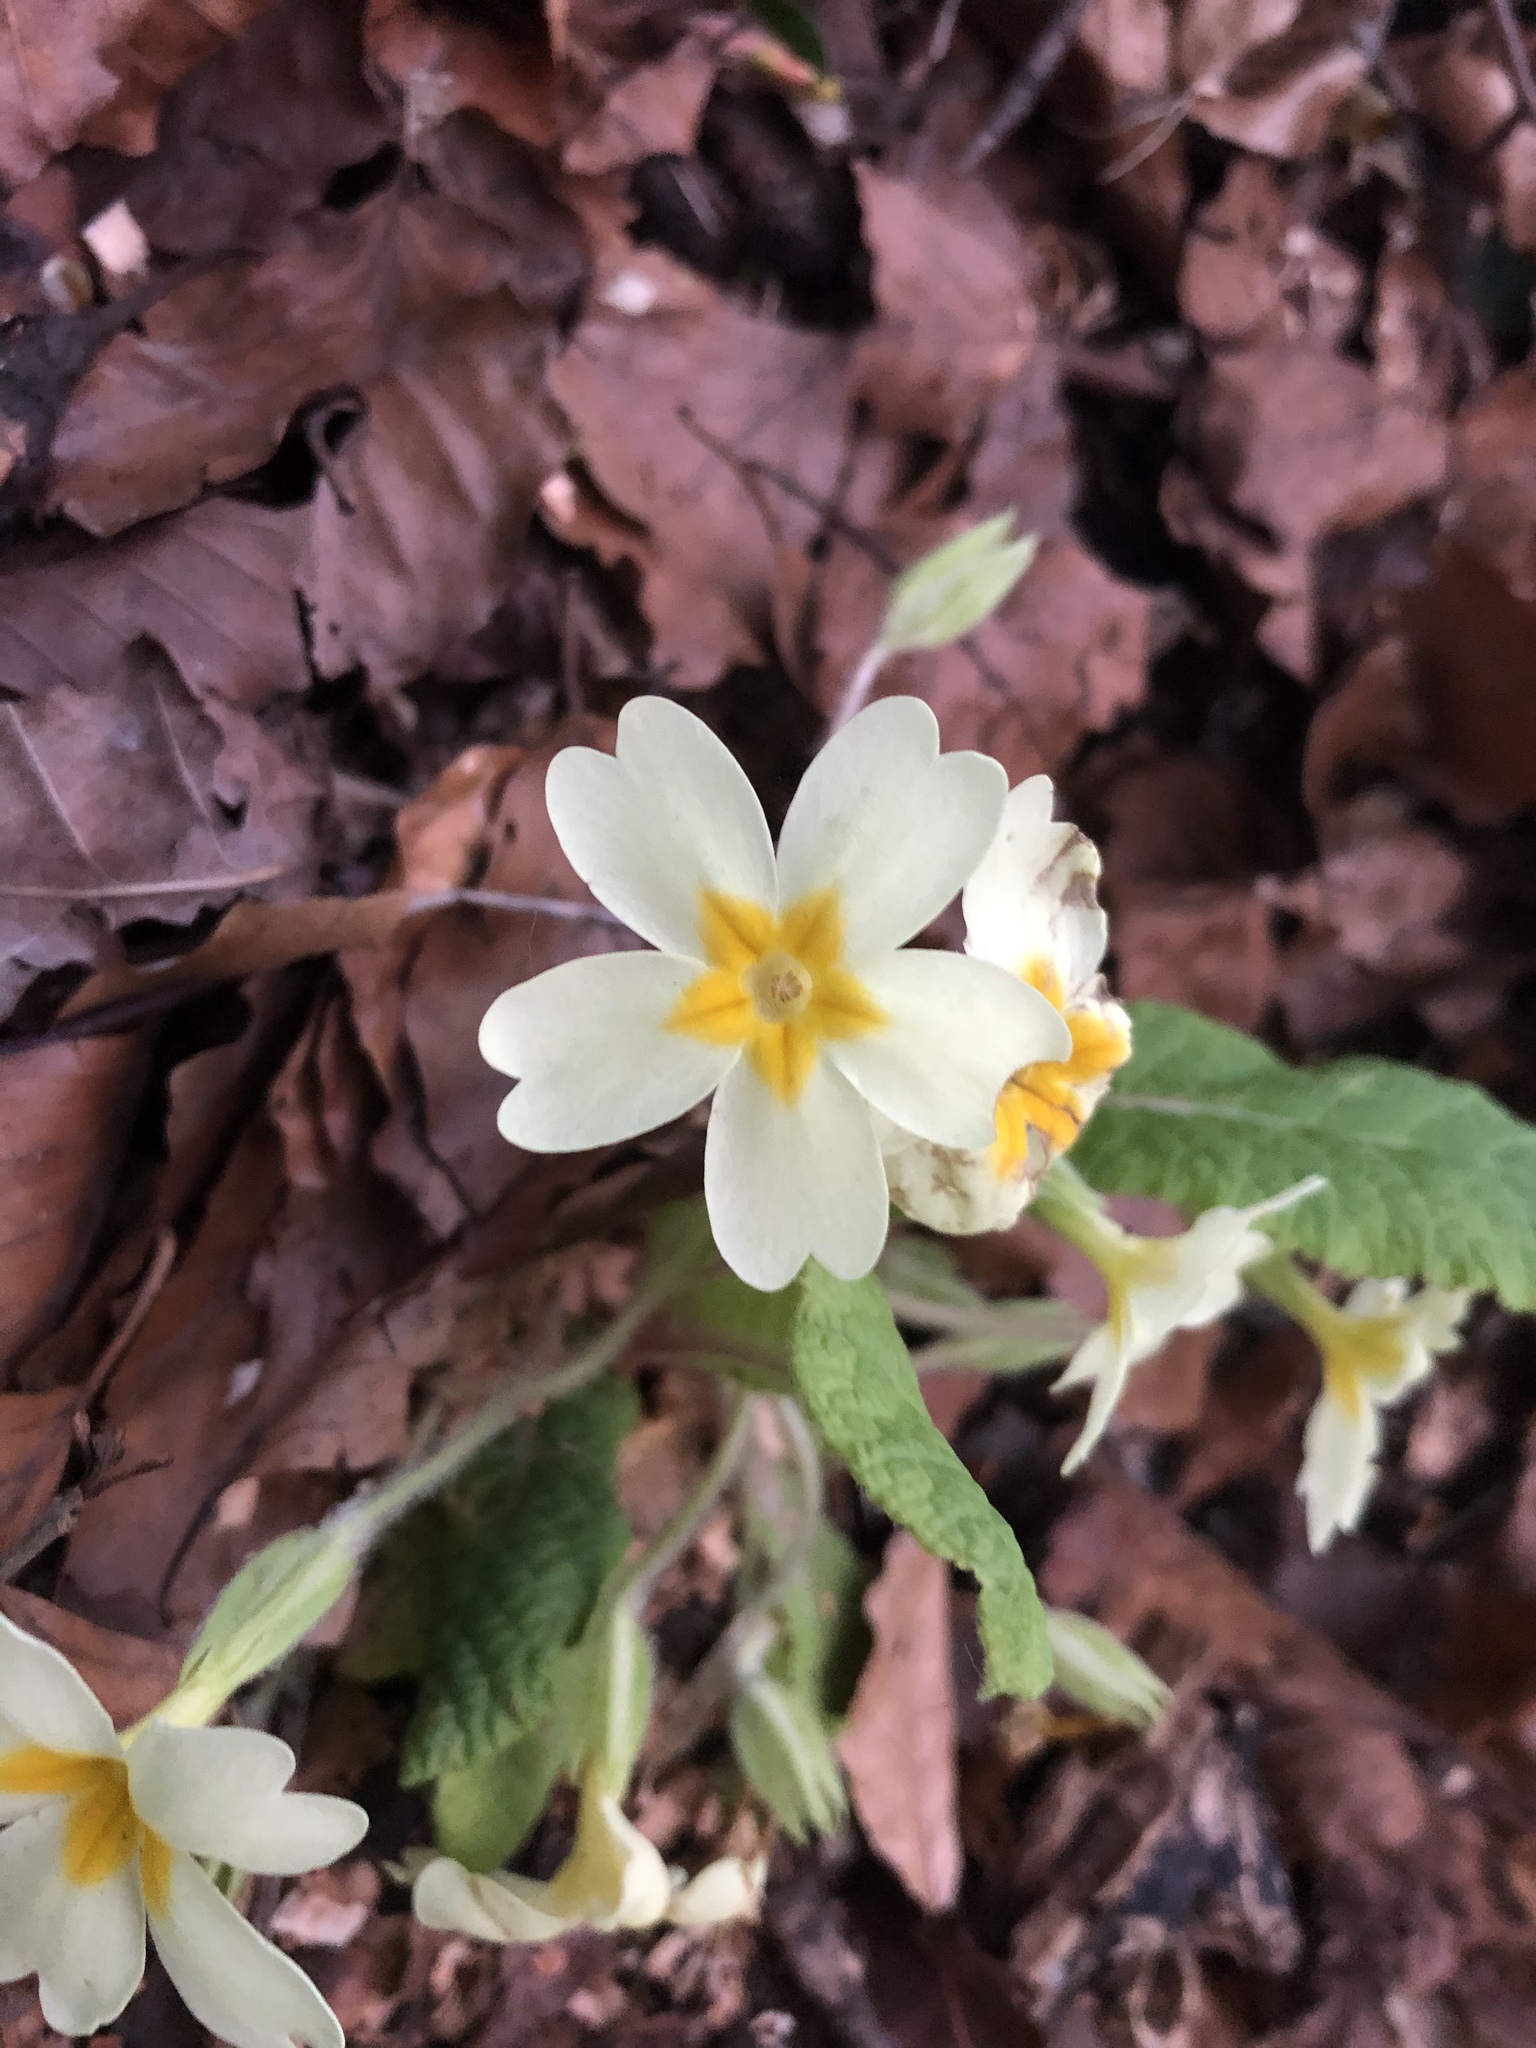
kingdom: Plantae
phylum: Tracheophyta
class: Magnoliopsida
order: Ericales
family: Primulaceae
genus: Primula
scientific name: Primula vulgaris
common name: Primrose
